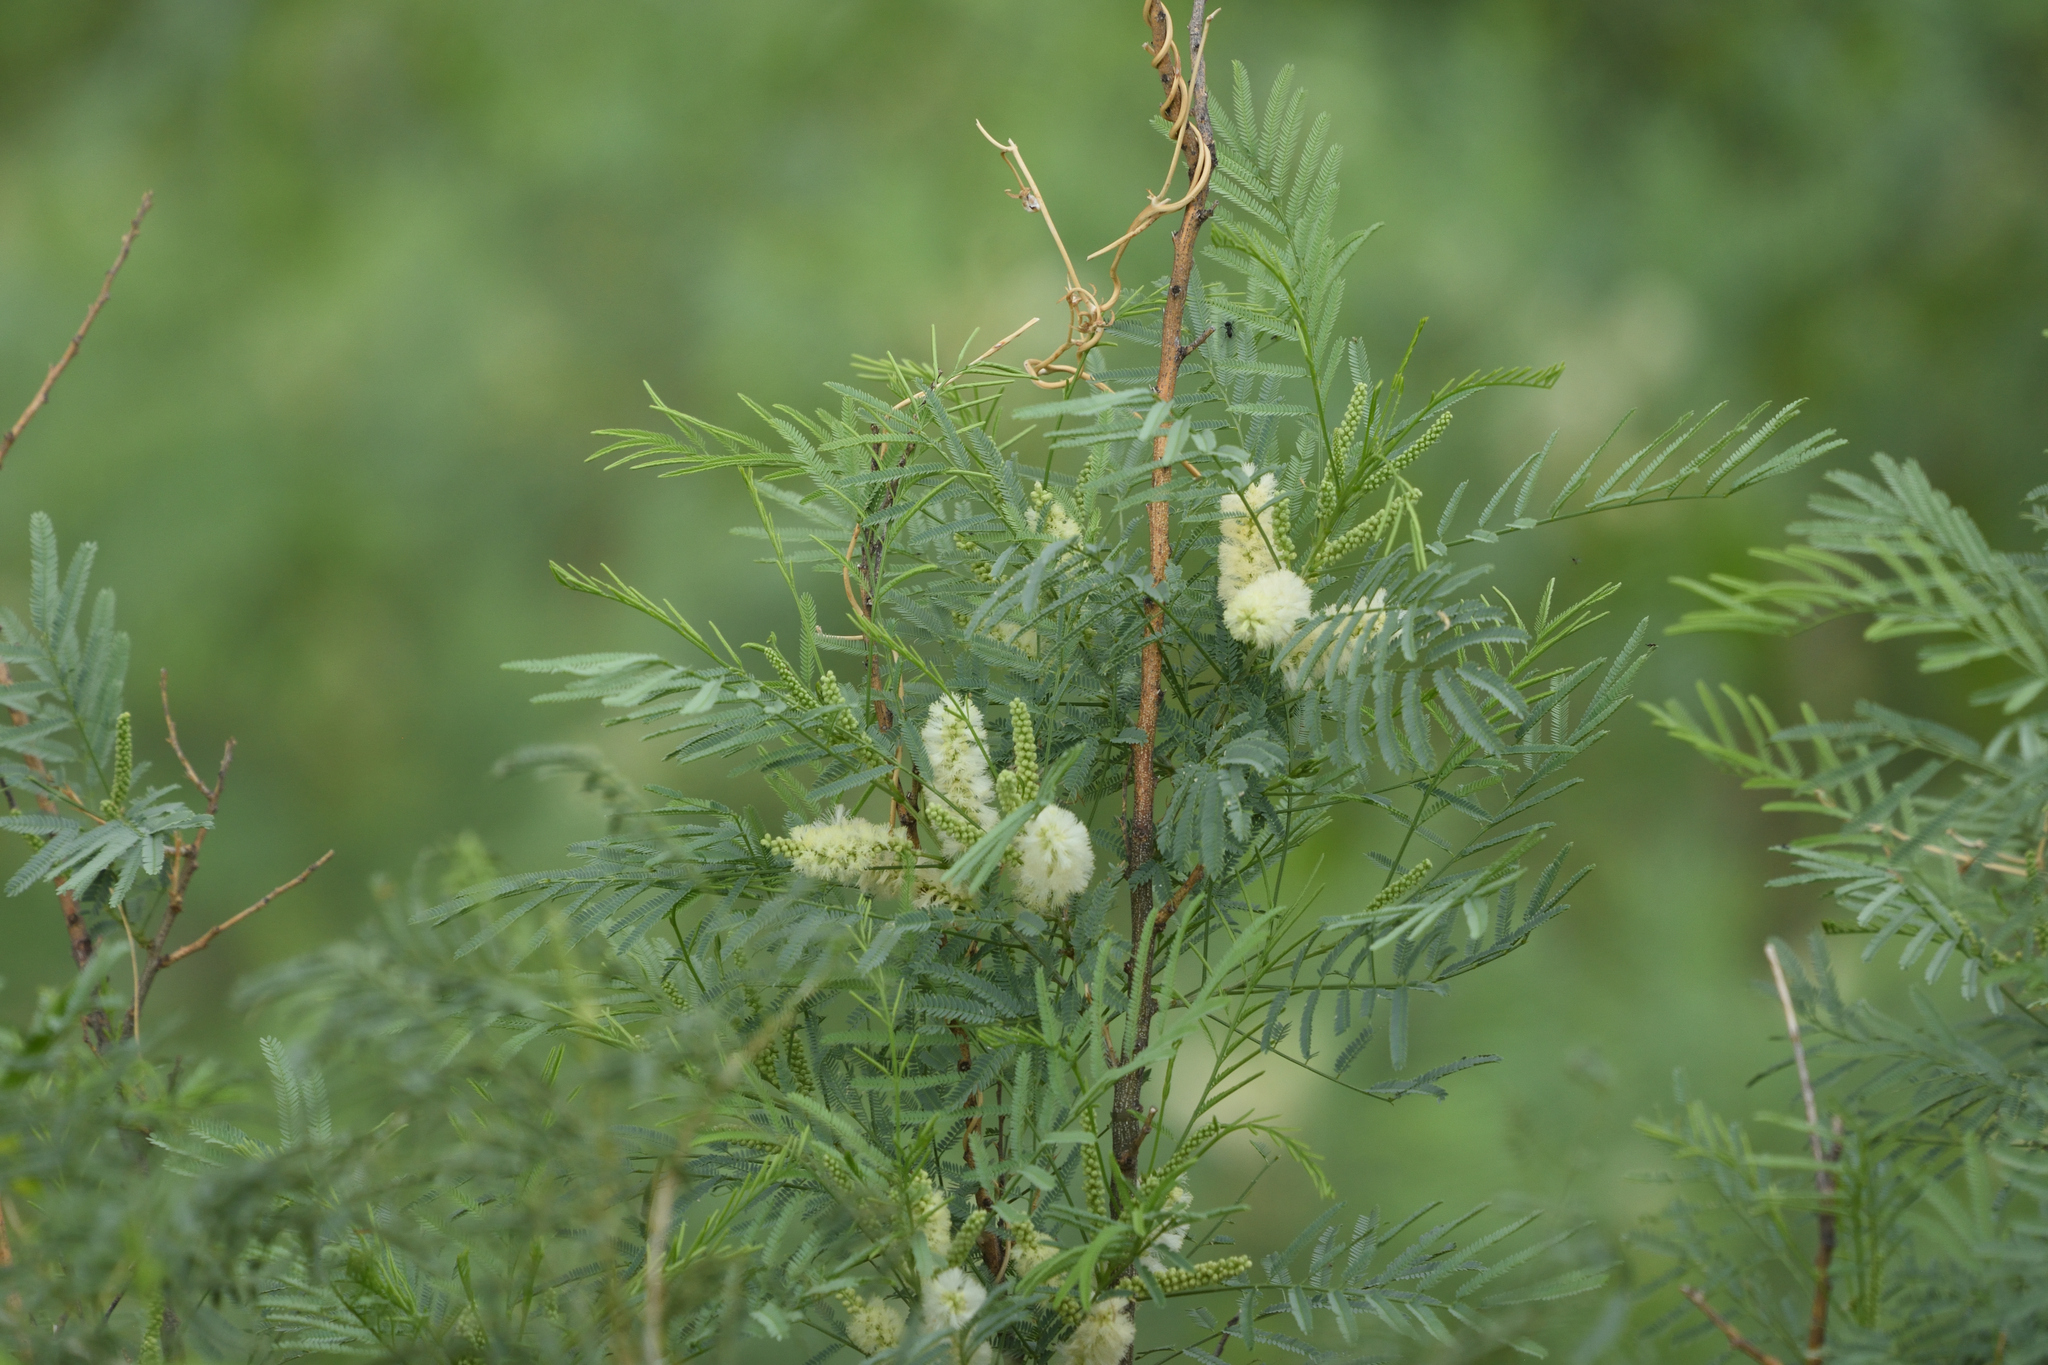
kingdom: Plantae
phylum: Tracheophyta
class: Magnoliopsida
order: Fabales
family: Fabaceae
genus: Mariosousa
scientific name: Mariosousa millefolia
